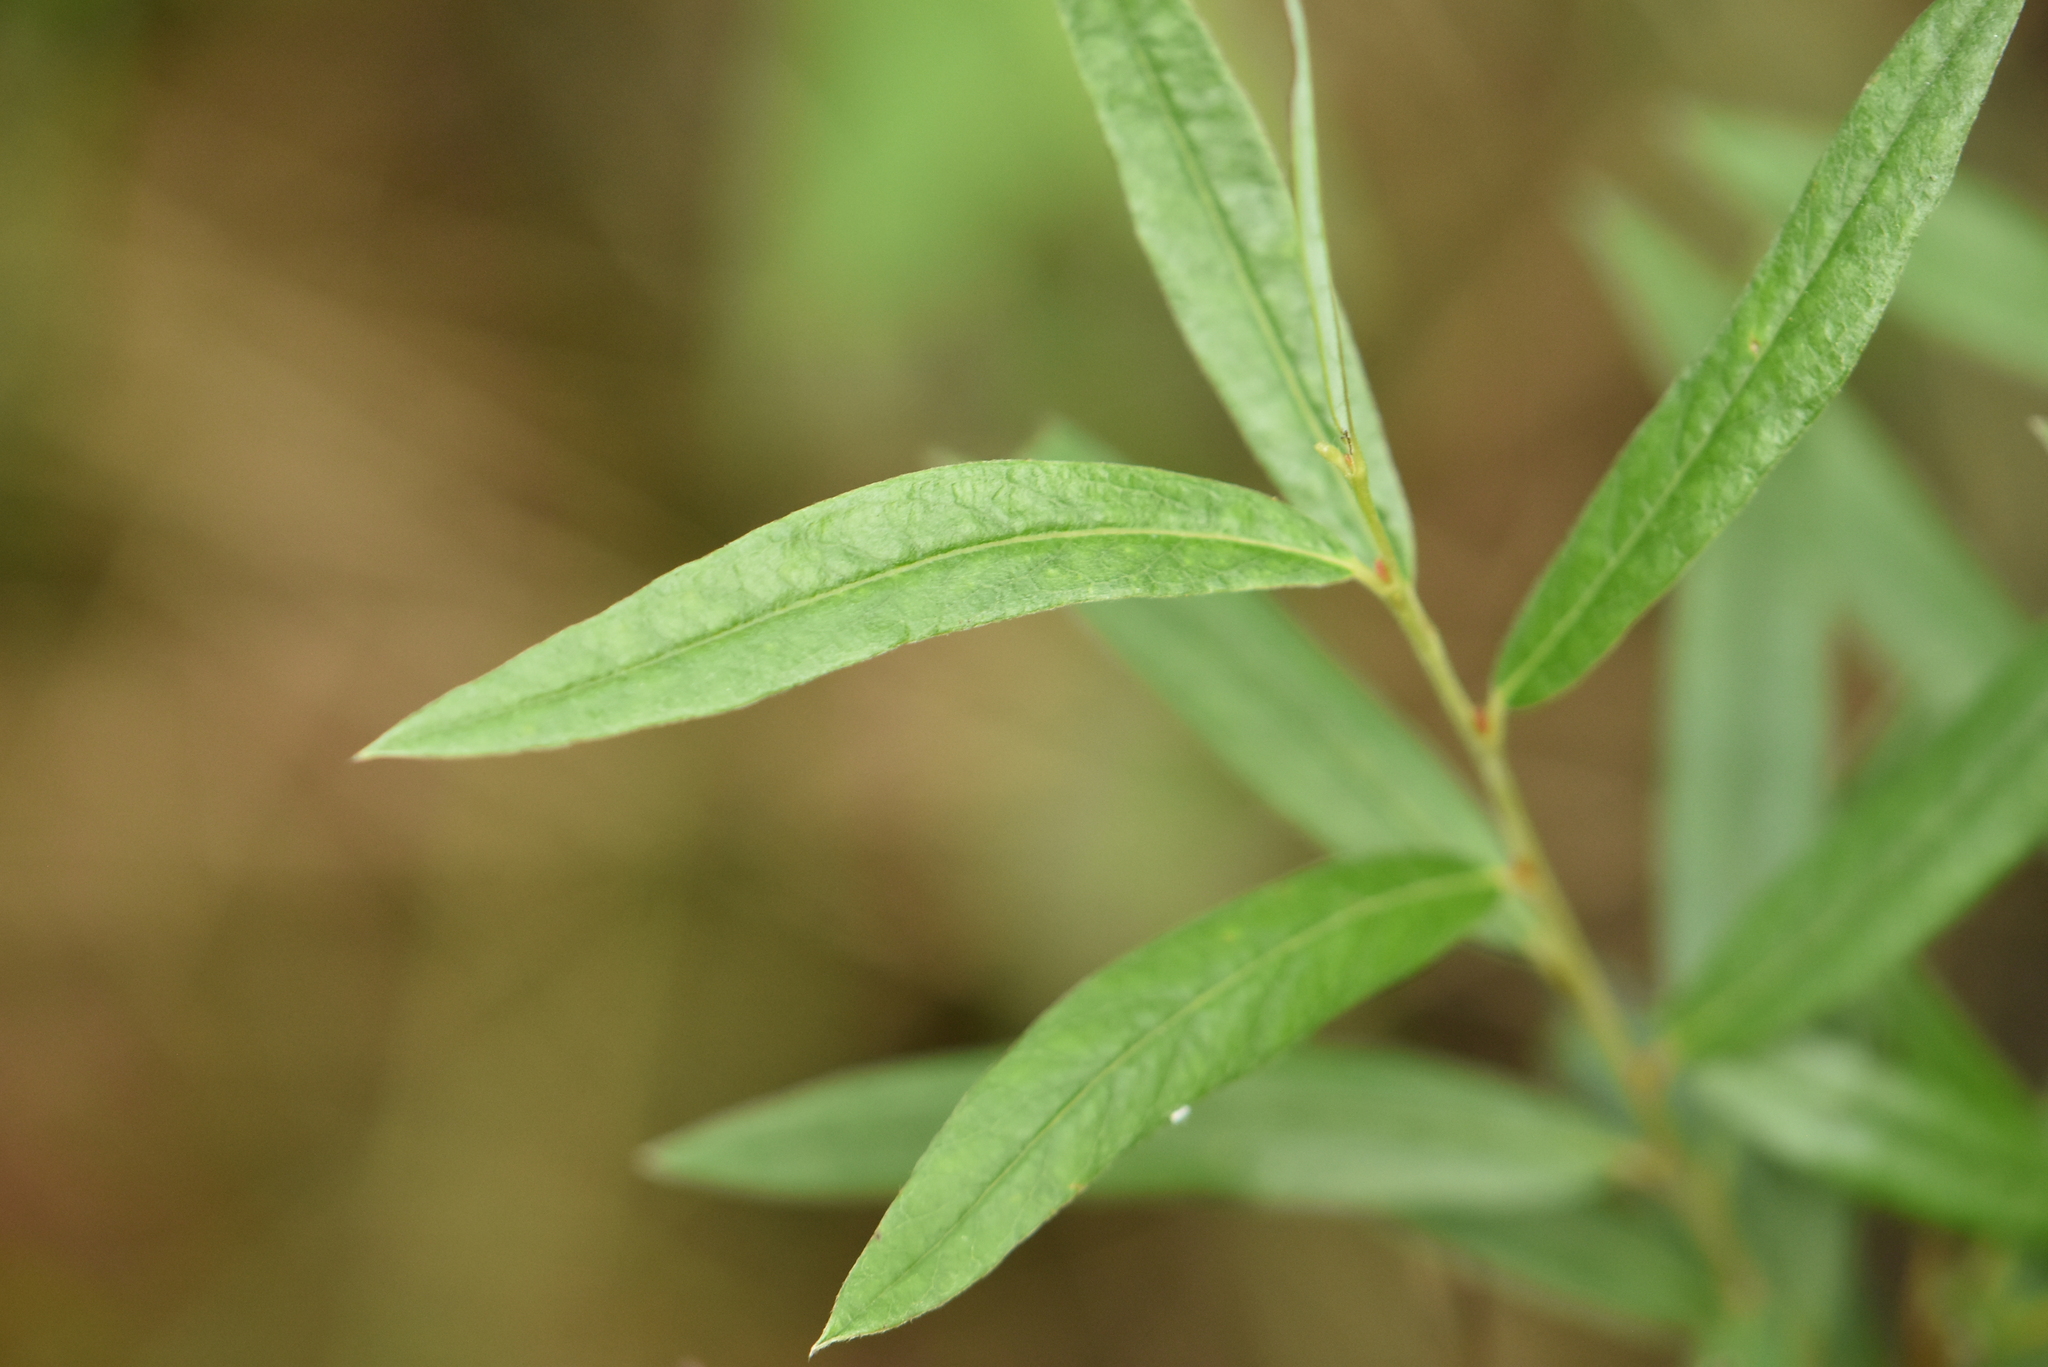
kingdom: Plantae
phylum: Tracheophyta
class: Magnoliopsida
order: Malpighiales
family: Salicaceae
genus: Salix
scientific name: Salix rosmarinifolia
